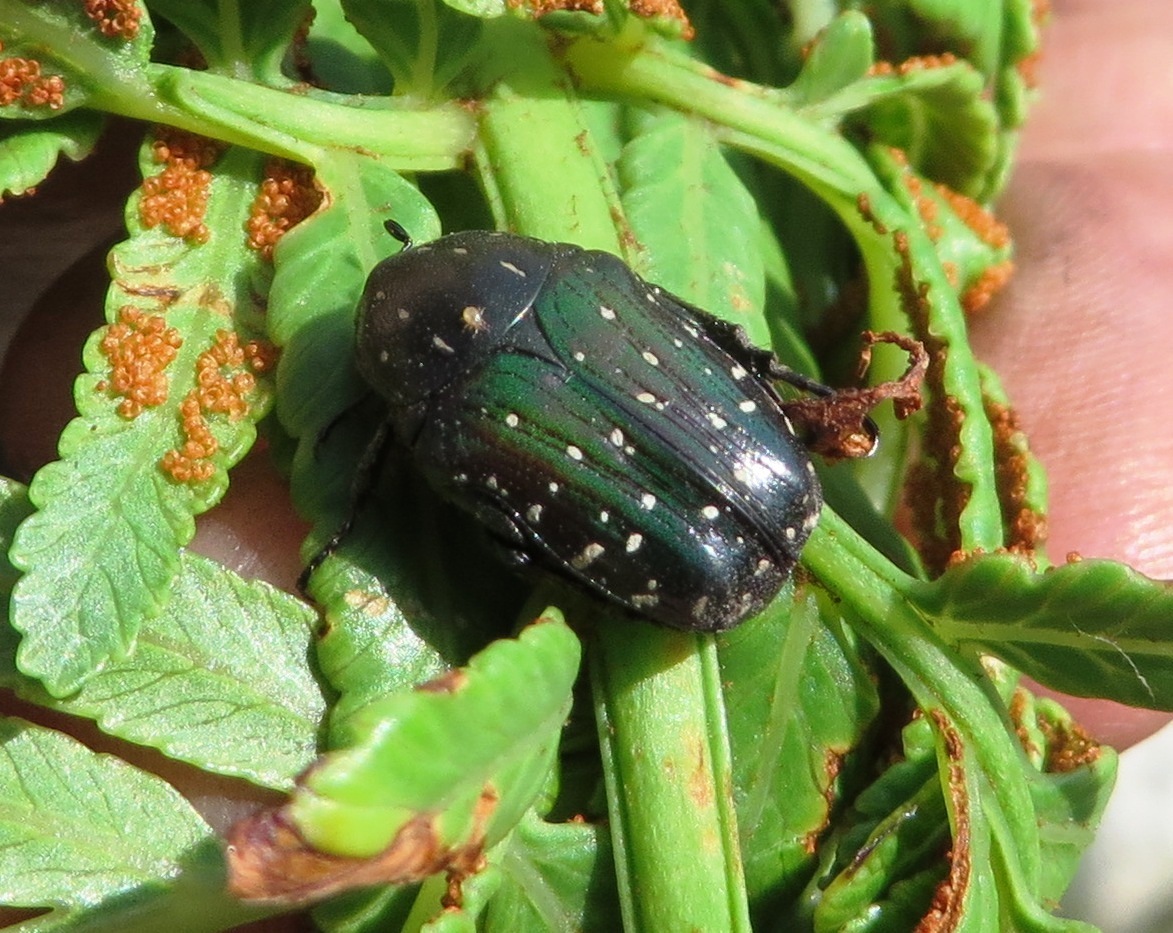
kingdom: Animalia
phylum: Arthropoda
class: Insecta
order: Coleoptera
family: Scarabaeidae
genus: Leucocelis
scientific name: Leucocelis adspersa
